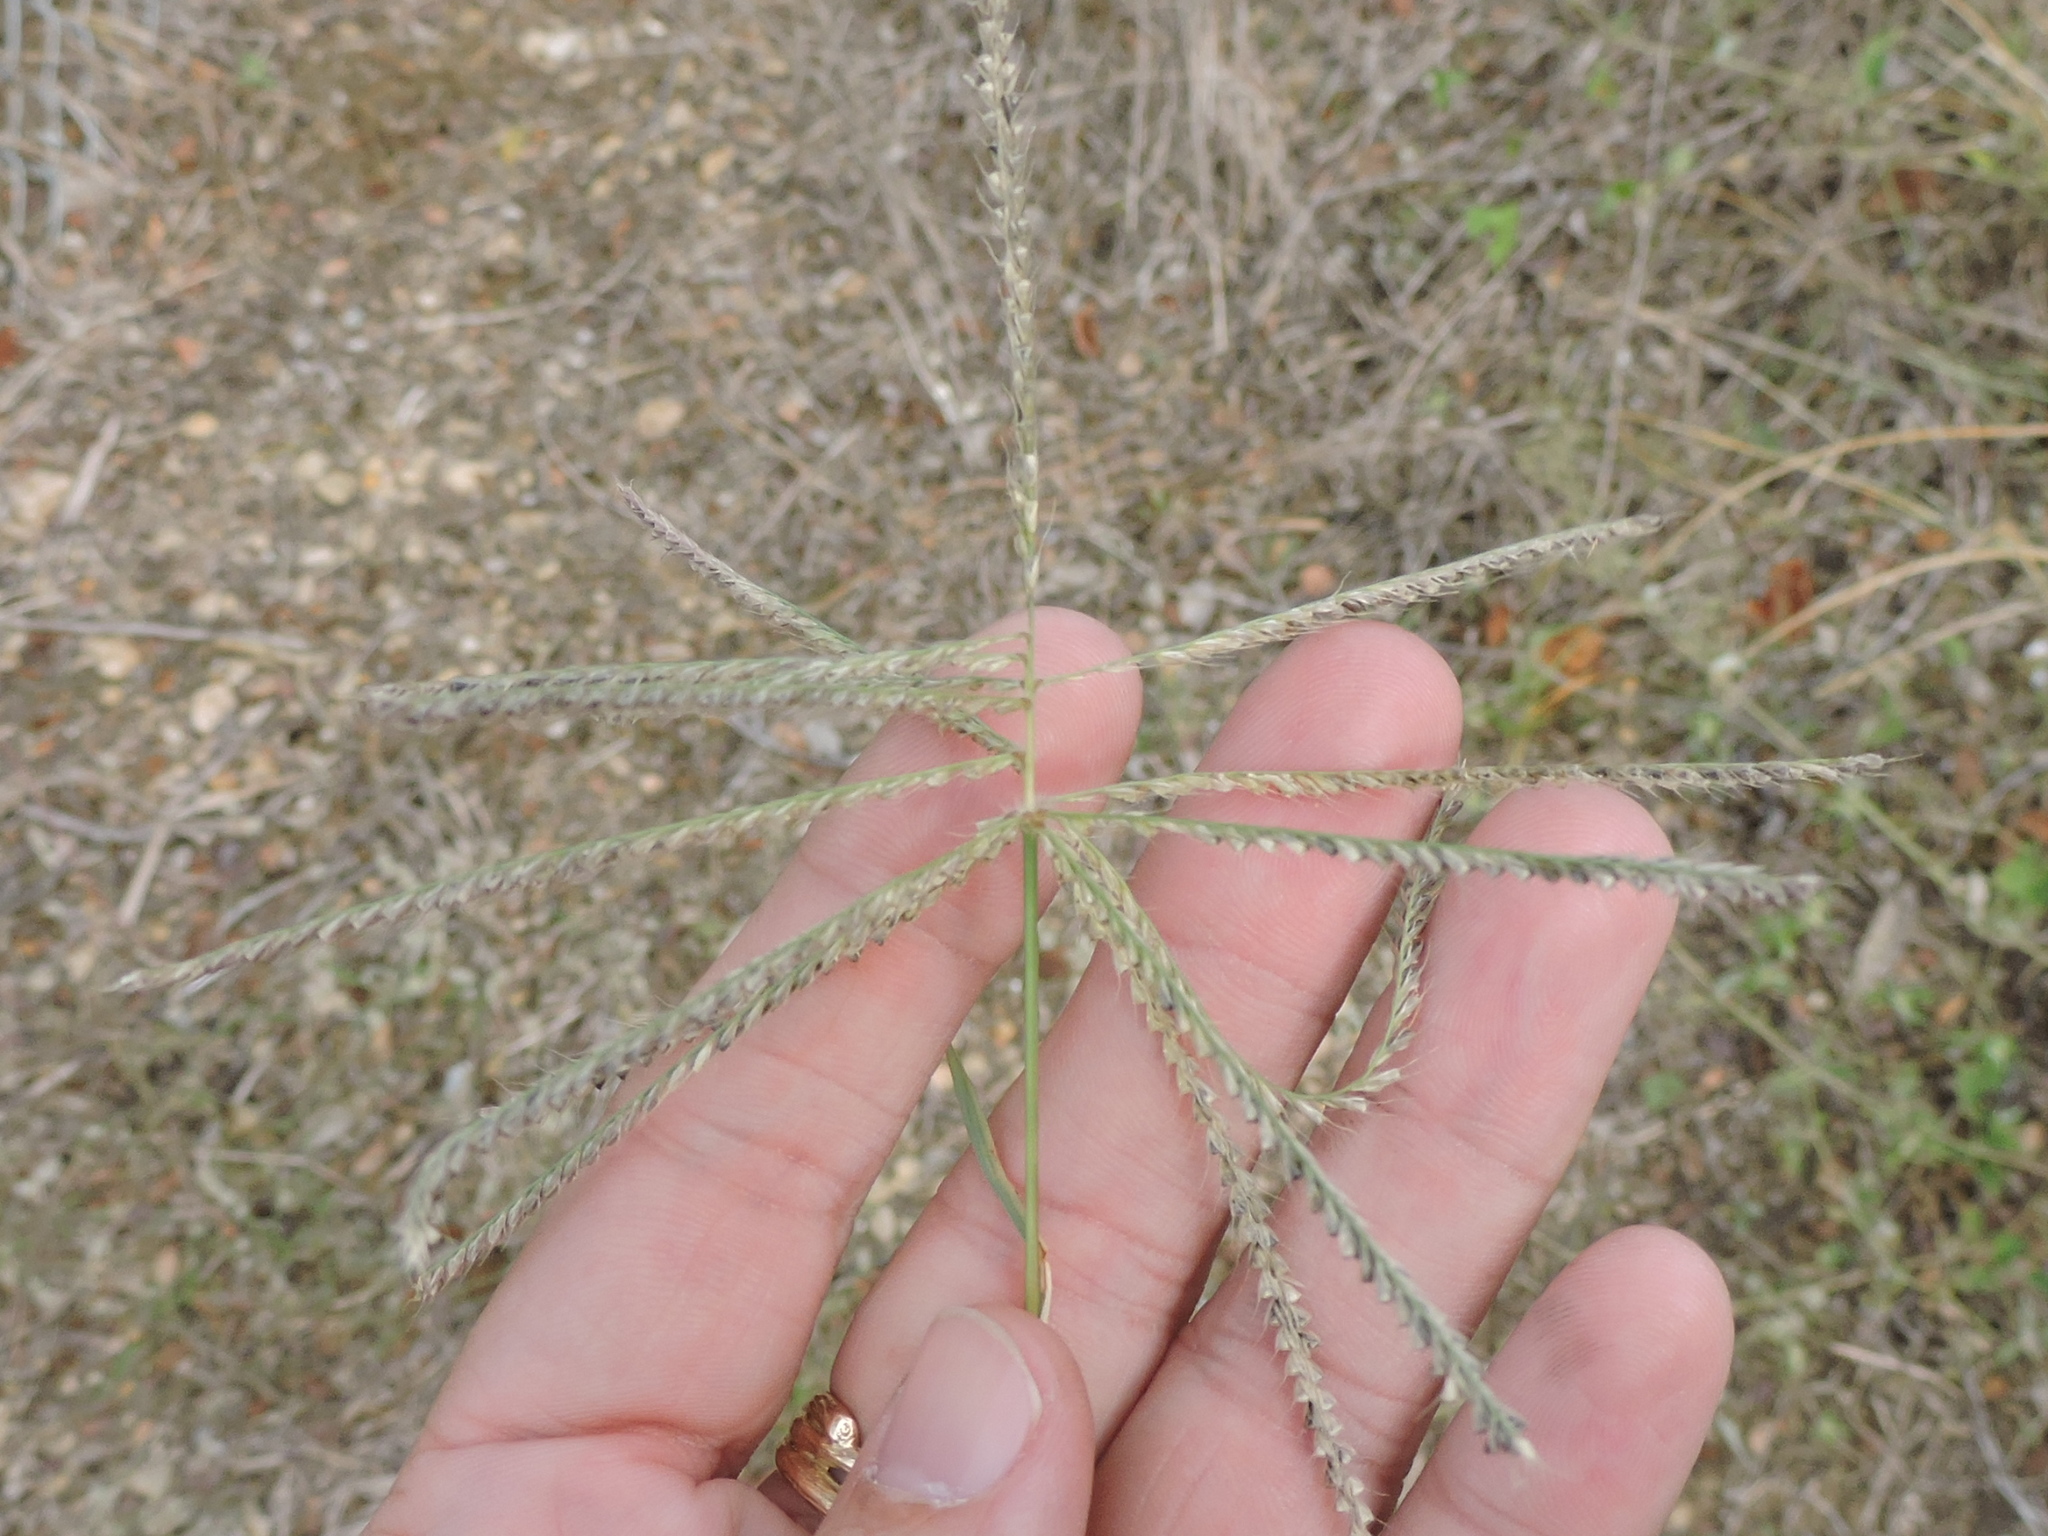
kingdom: Plantae
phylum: Tracheophyta
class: Liliopsida
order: Poales
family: Poaceae
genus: Chloris
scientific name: Chloris verticillata
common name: Tumble windmill grass
